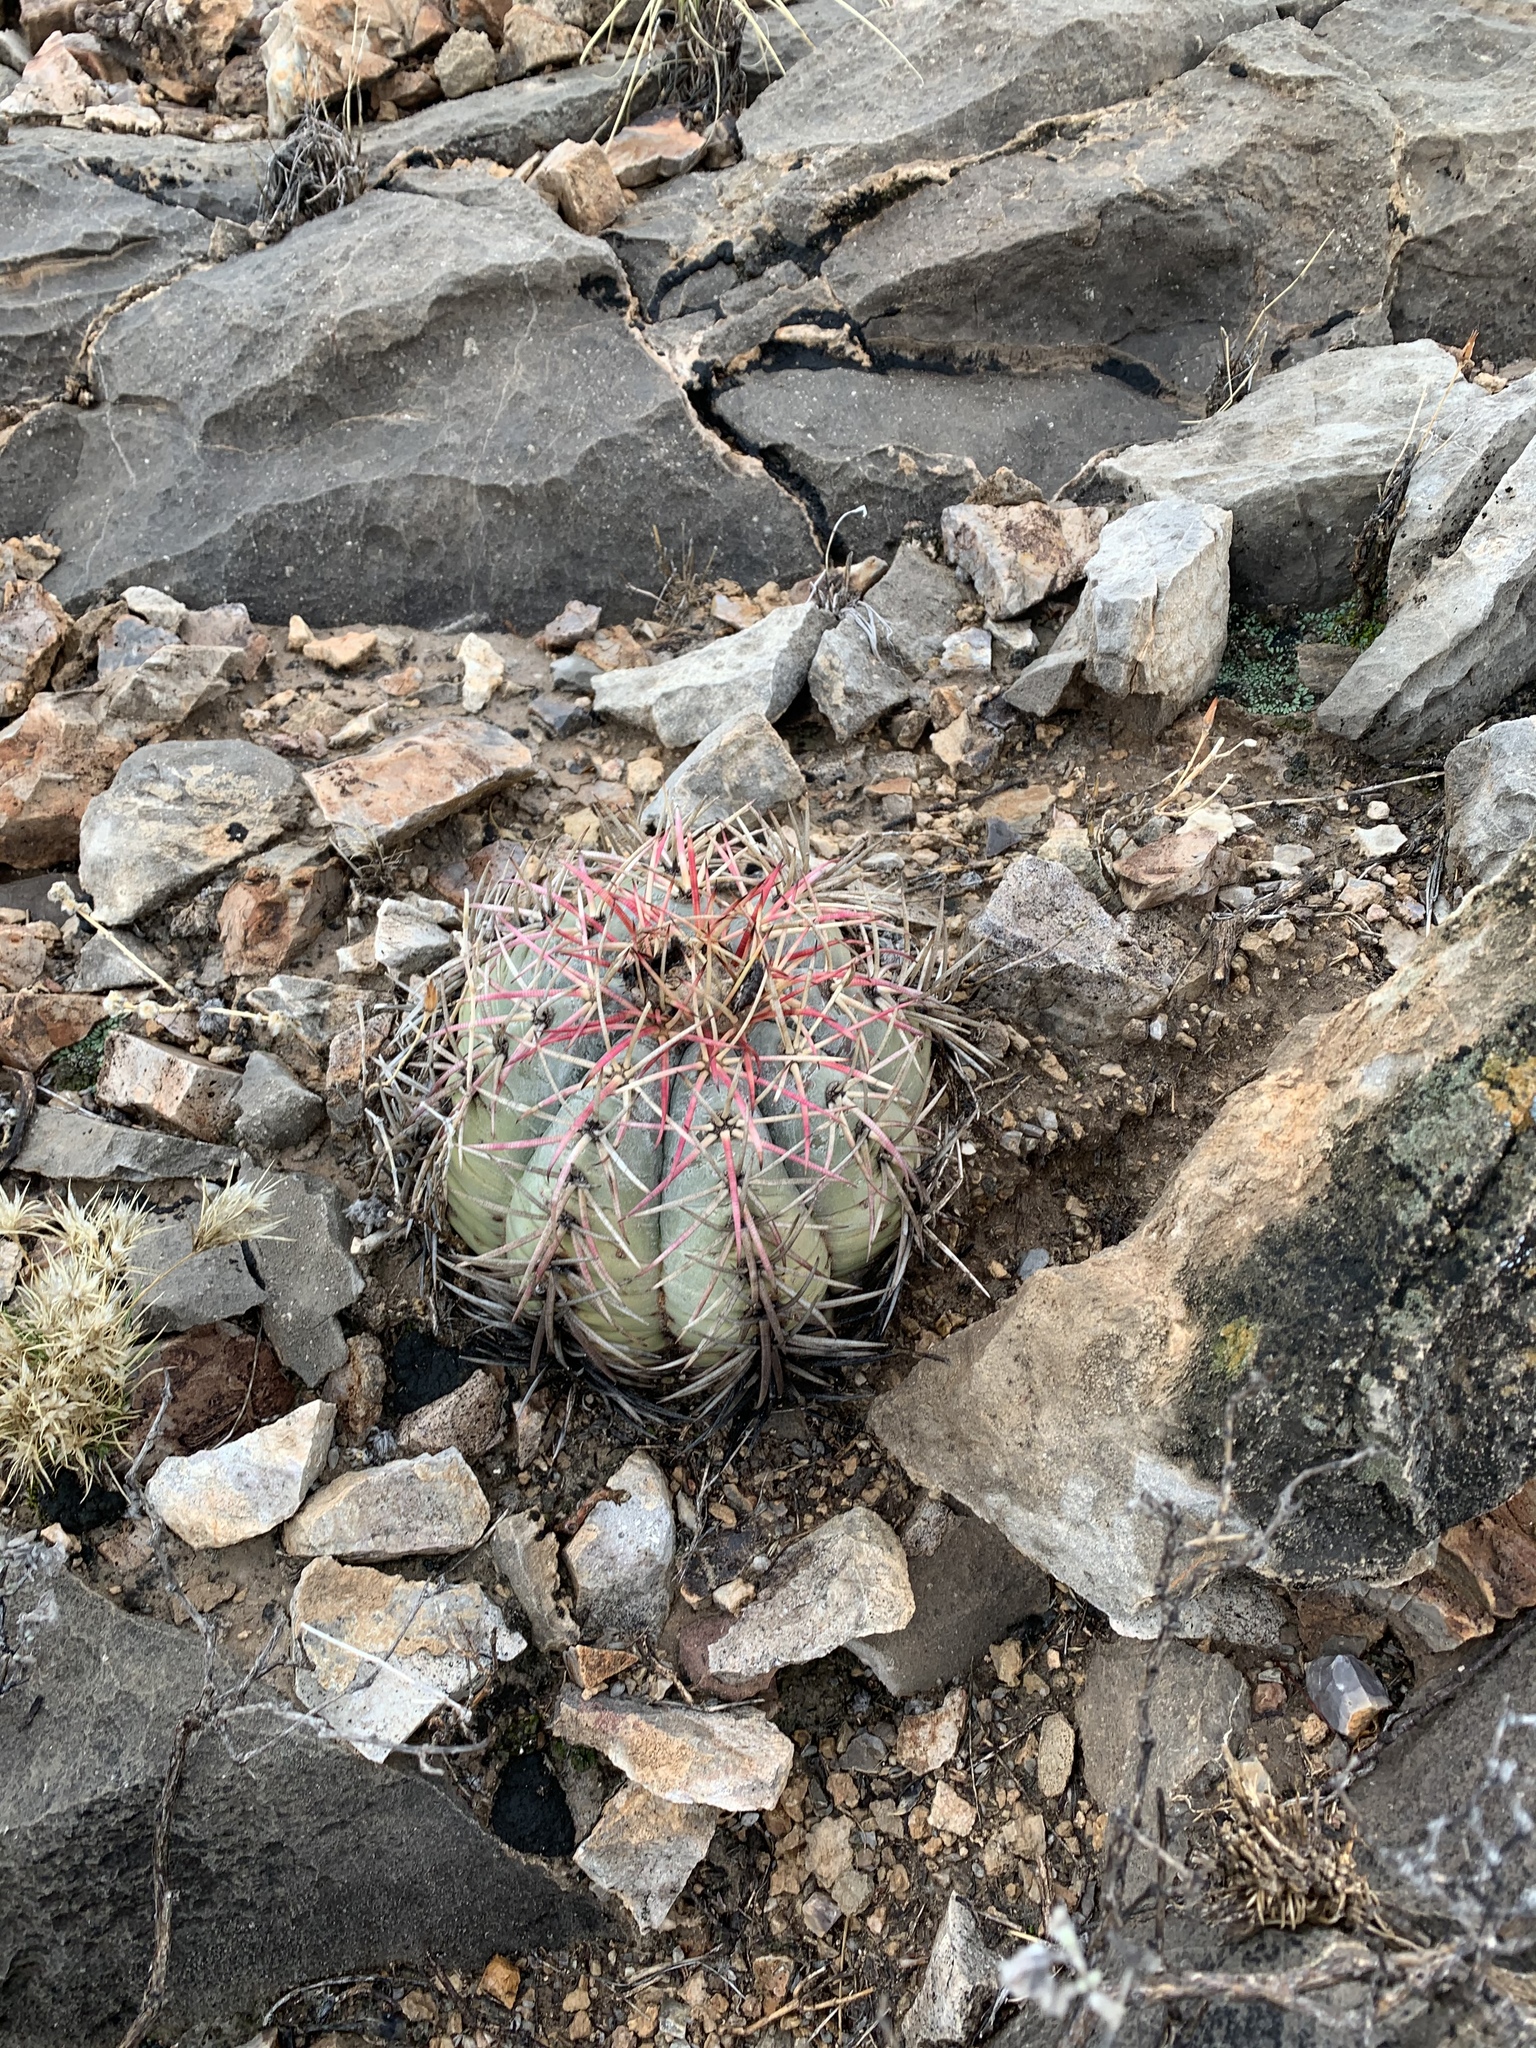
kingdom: Plantae
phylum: Tracheophyta
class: Magnoliopsida
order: Caryophyllales
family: Cactaceae
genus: Echinocactus
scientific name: Echinocactus horizonthalonius
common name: Devilshead
